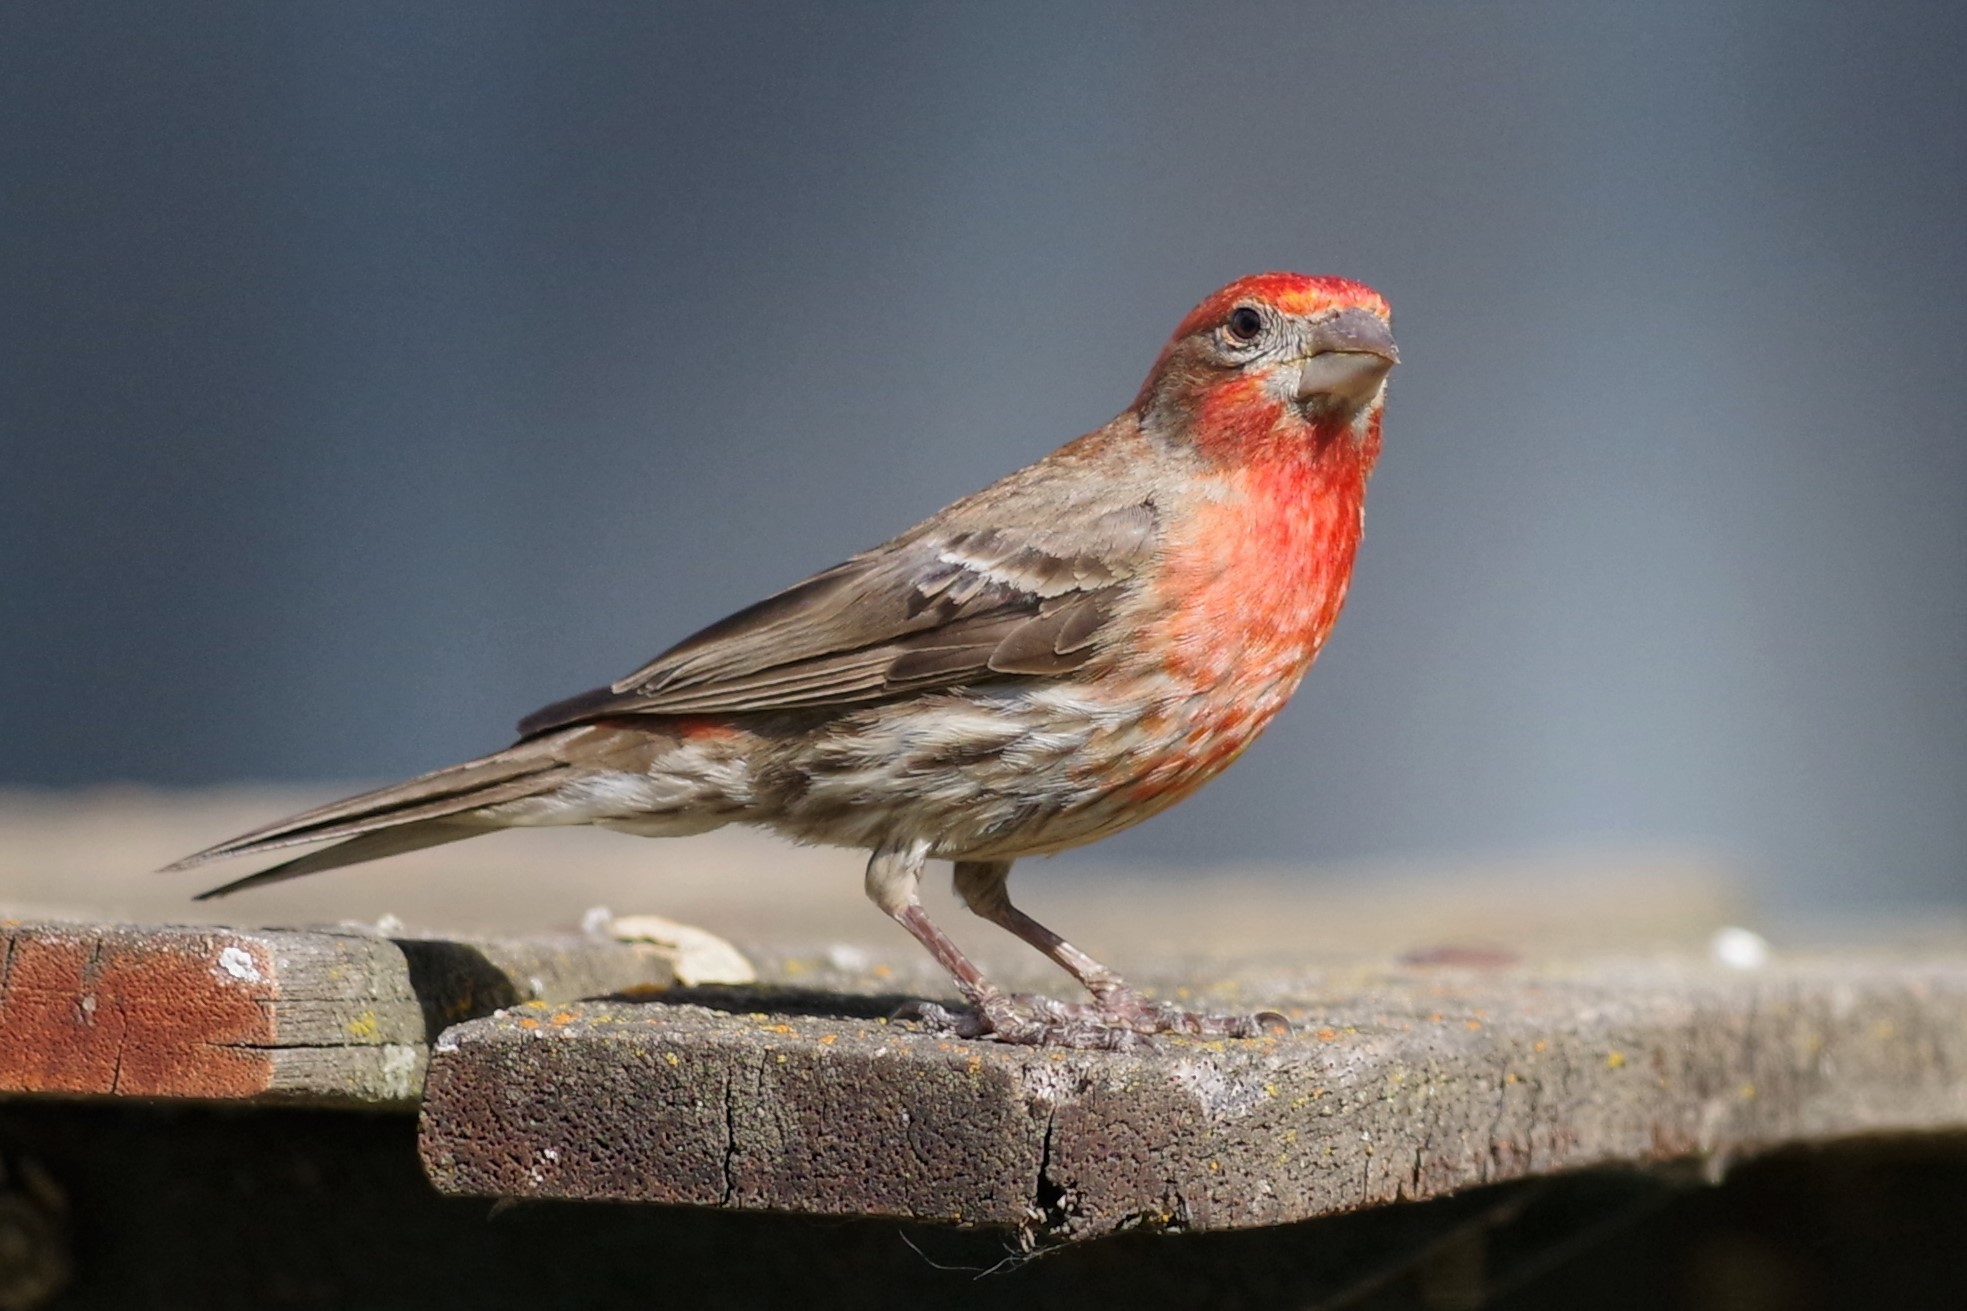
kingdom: Animalia
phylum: Chordata
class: Aves
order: Passeriformes
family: Fringillidae
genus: Haemorhous
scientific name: Haemorhous mexicanus
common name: House finch
